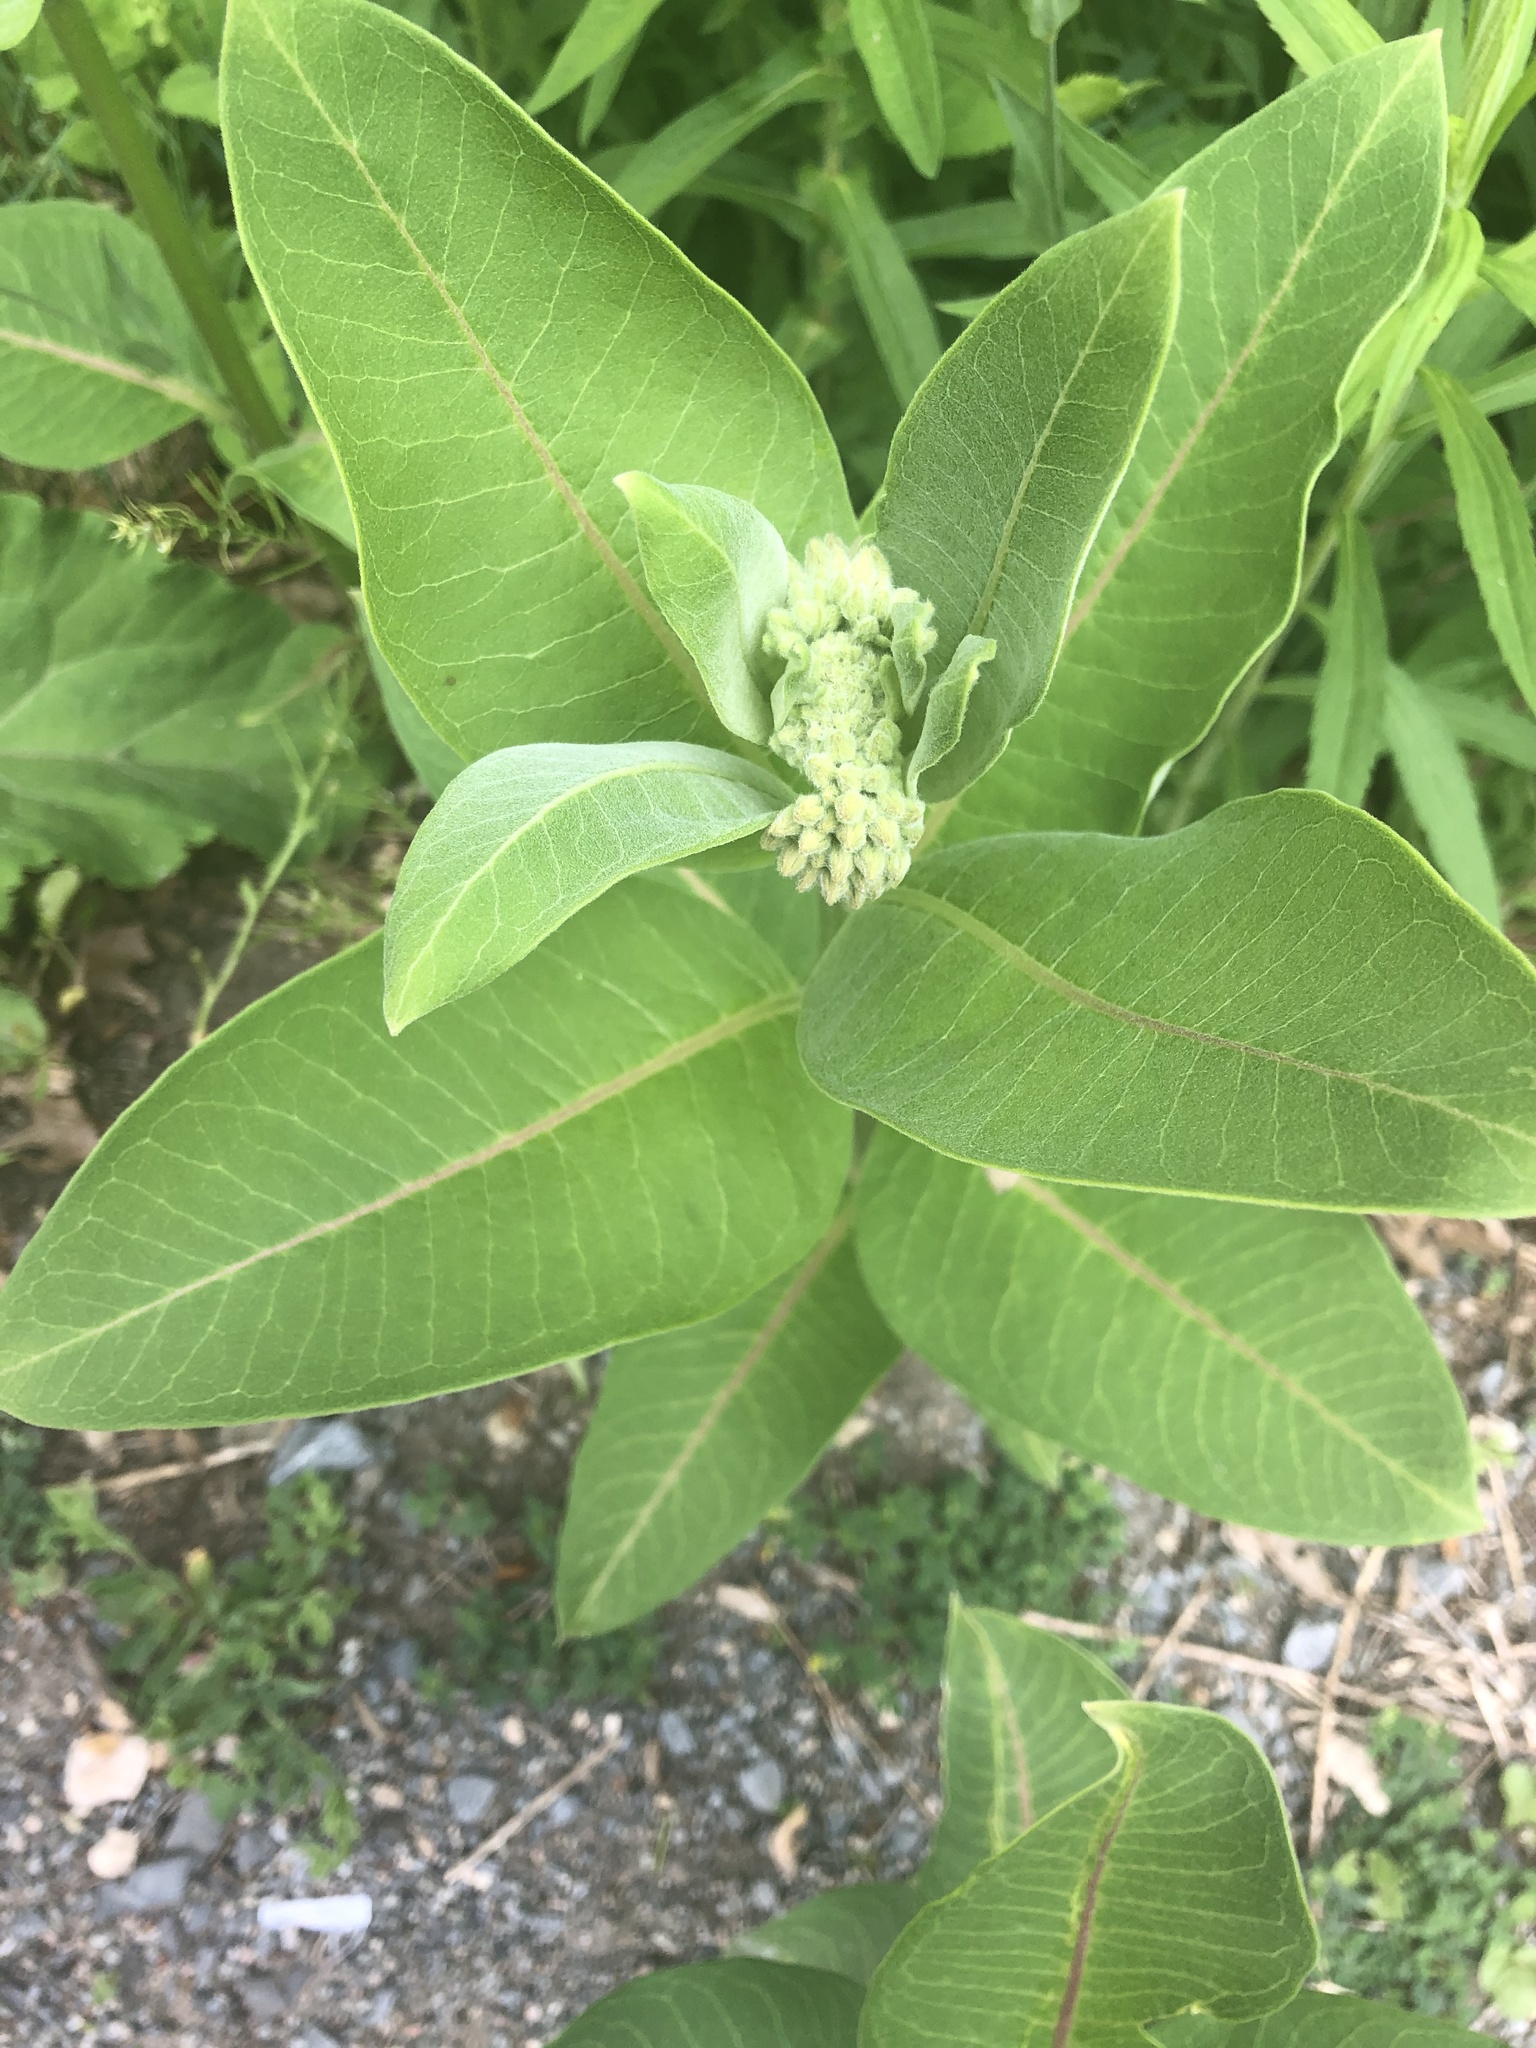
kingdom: Plantae
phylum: Tracheophyta
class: Magnoliopsida
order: Gentianales
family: Apocynaceae
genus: Asclepias
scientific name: Asclepias syriaca
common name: Common milkweed
